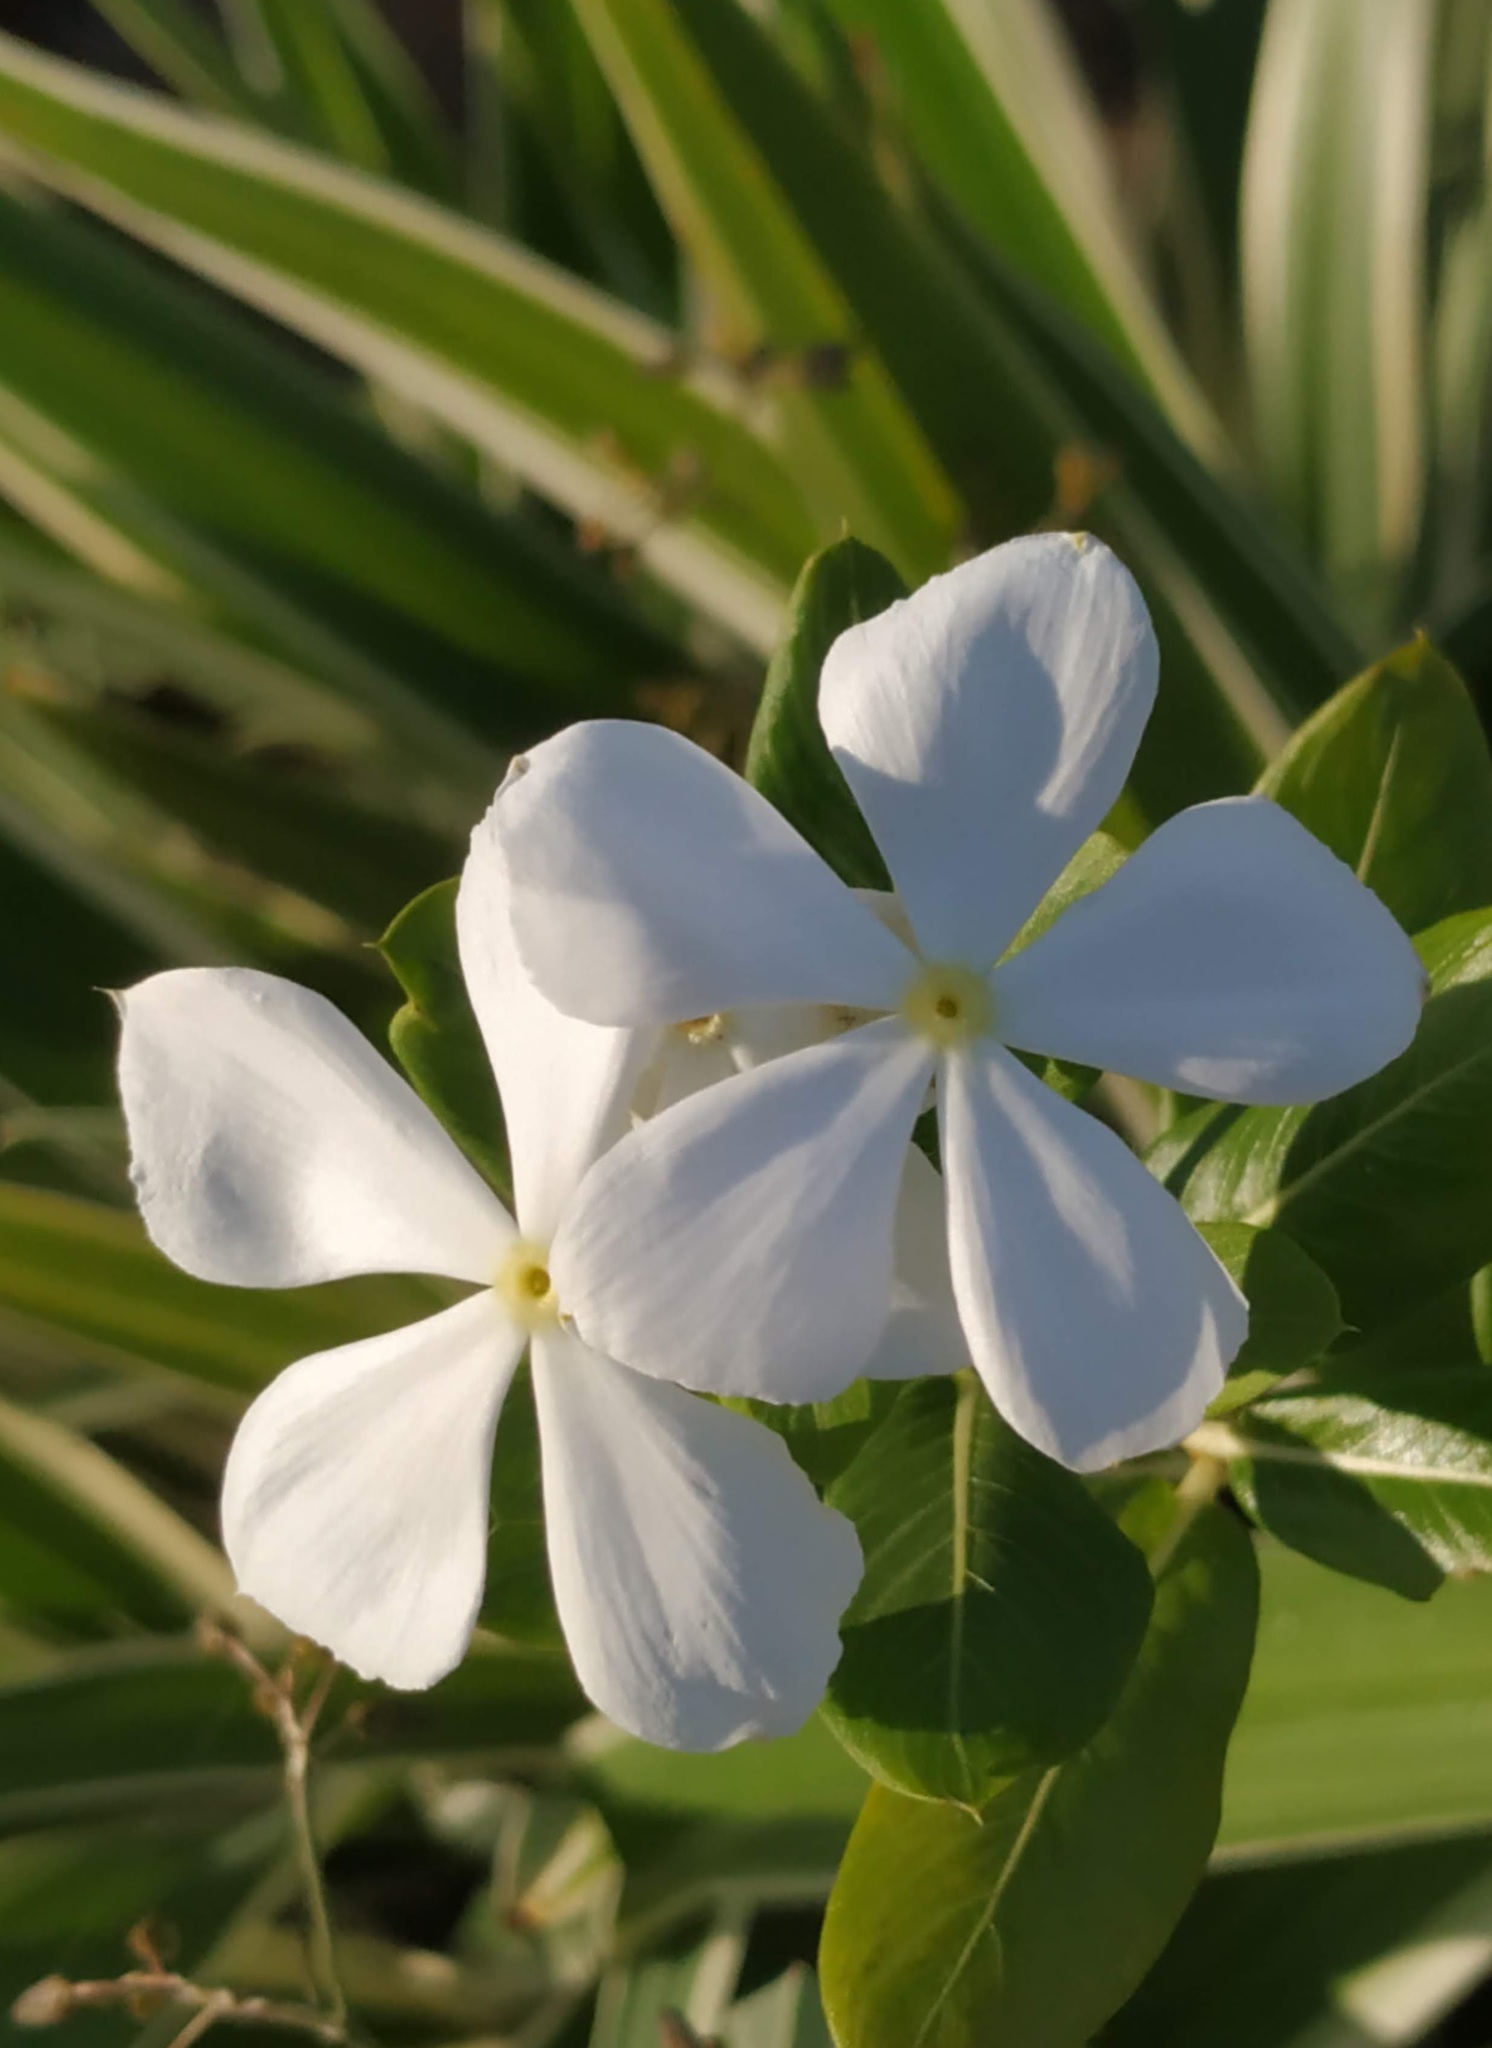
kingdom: Plantae
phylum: Tracheophyta
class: Magnoliopsida
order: Gentianales
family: Apocynaceae
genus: Catharanthus
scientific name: Catharanthus roseus
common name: Madagascar periwinkle
